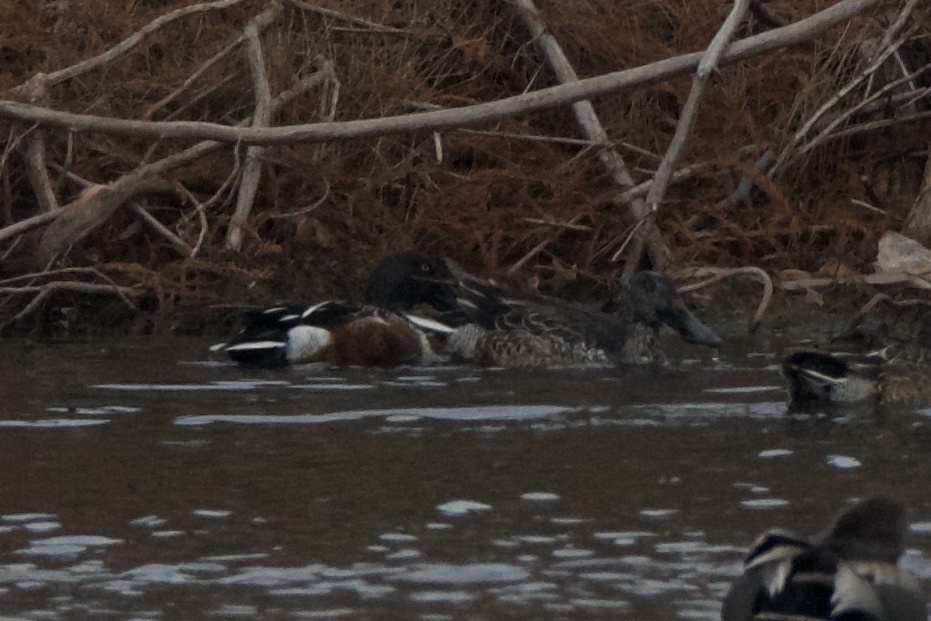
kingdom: Animalia
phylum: Chordata
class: Aves
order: Anseriformes
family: Anatidae
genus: Spatula
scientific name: Spatula clypeata
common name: Northern shoveler
